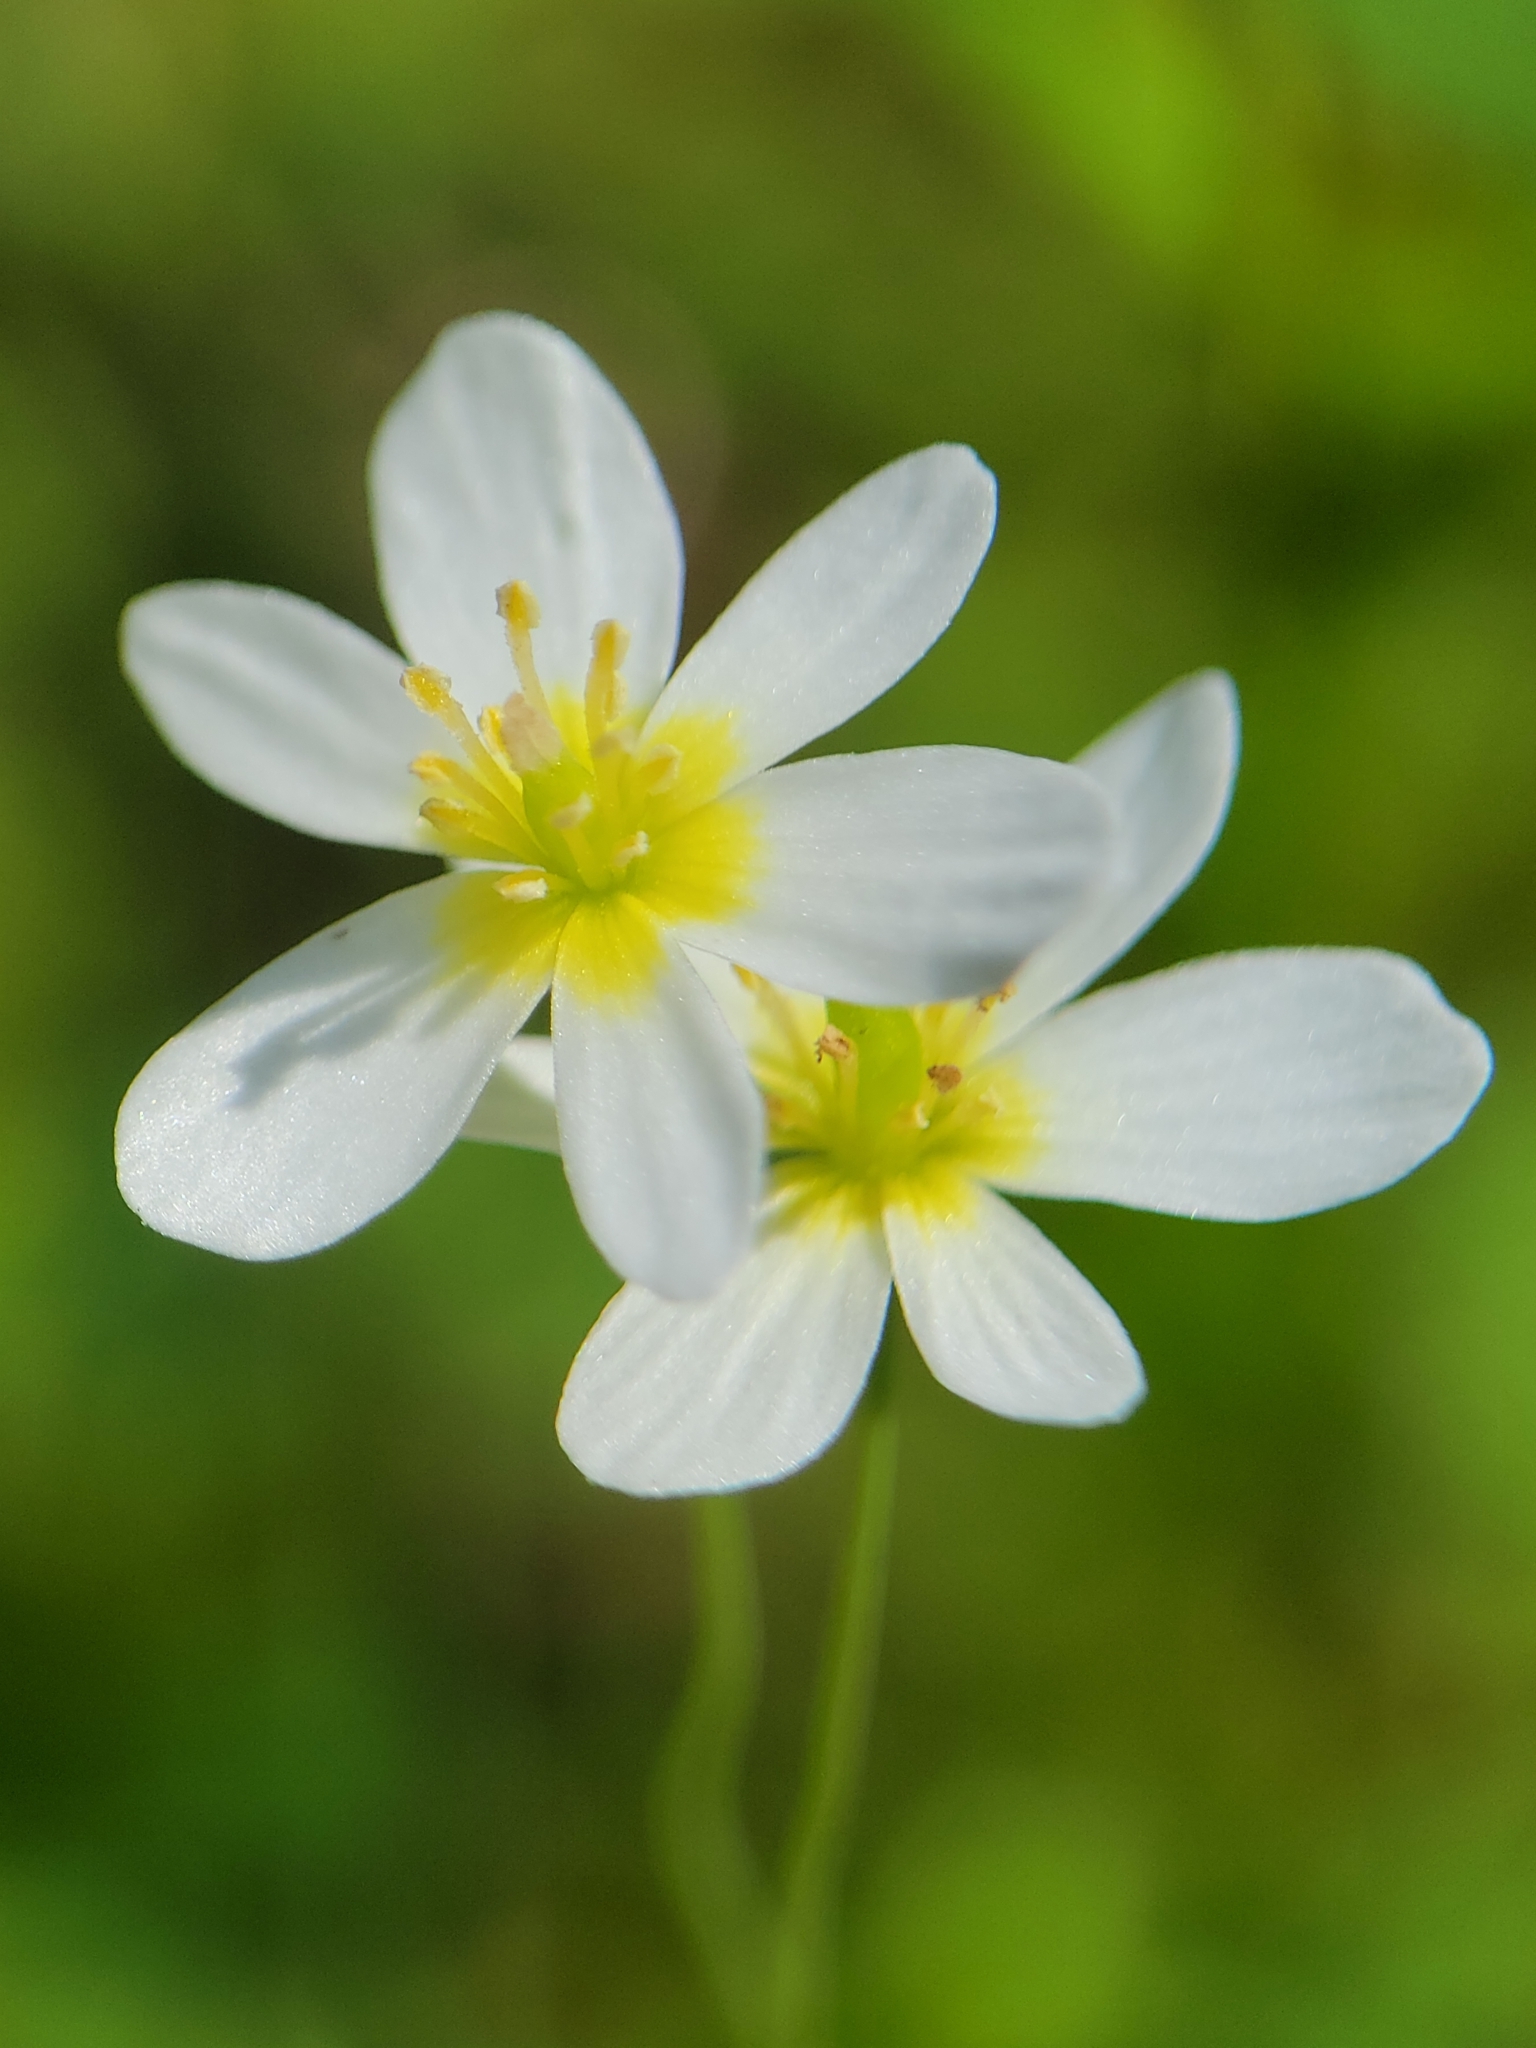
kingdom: Plantae
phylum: Tracheophyta
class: Magnoliopsida
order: Ranunculales
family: Papaveraceae
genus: Meconella
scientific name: Meconella californica
